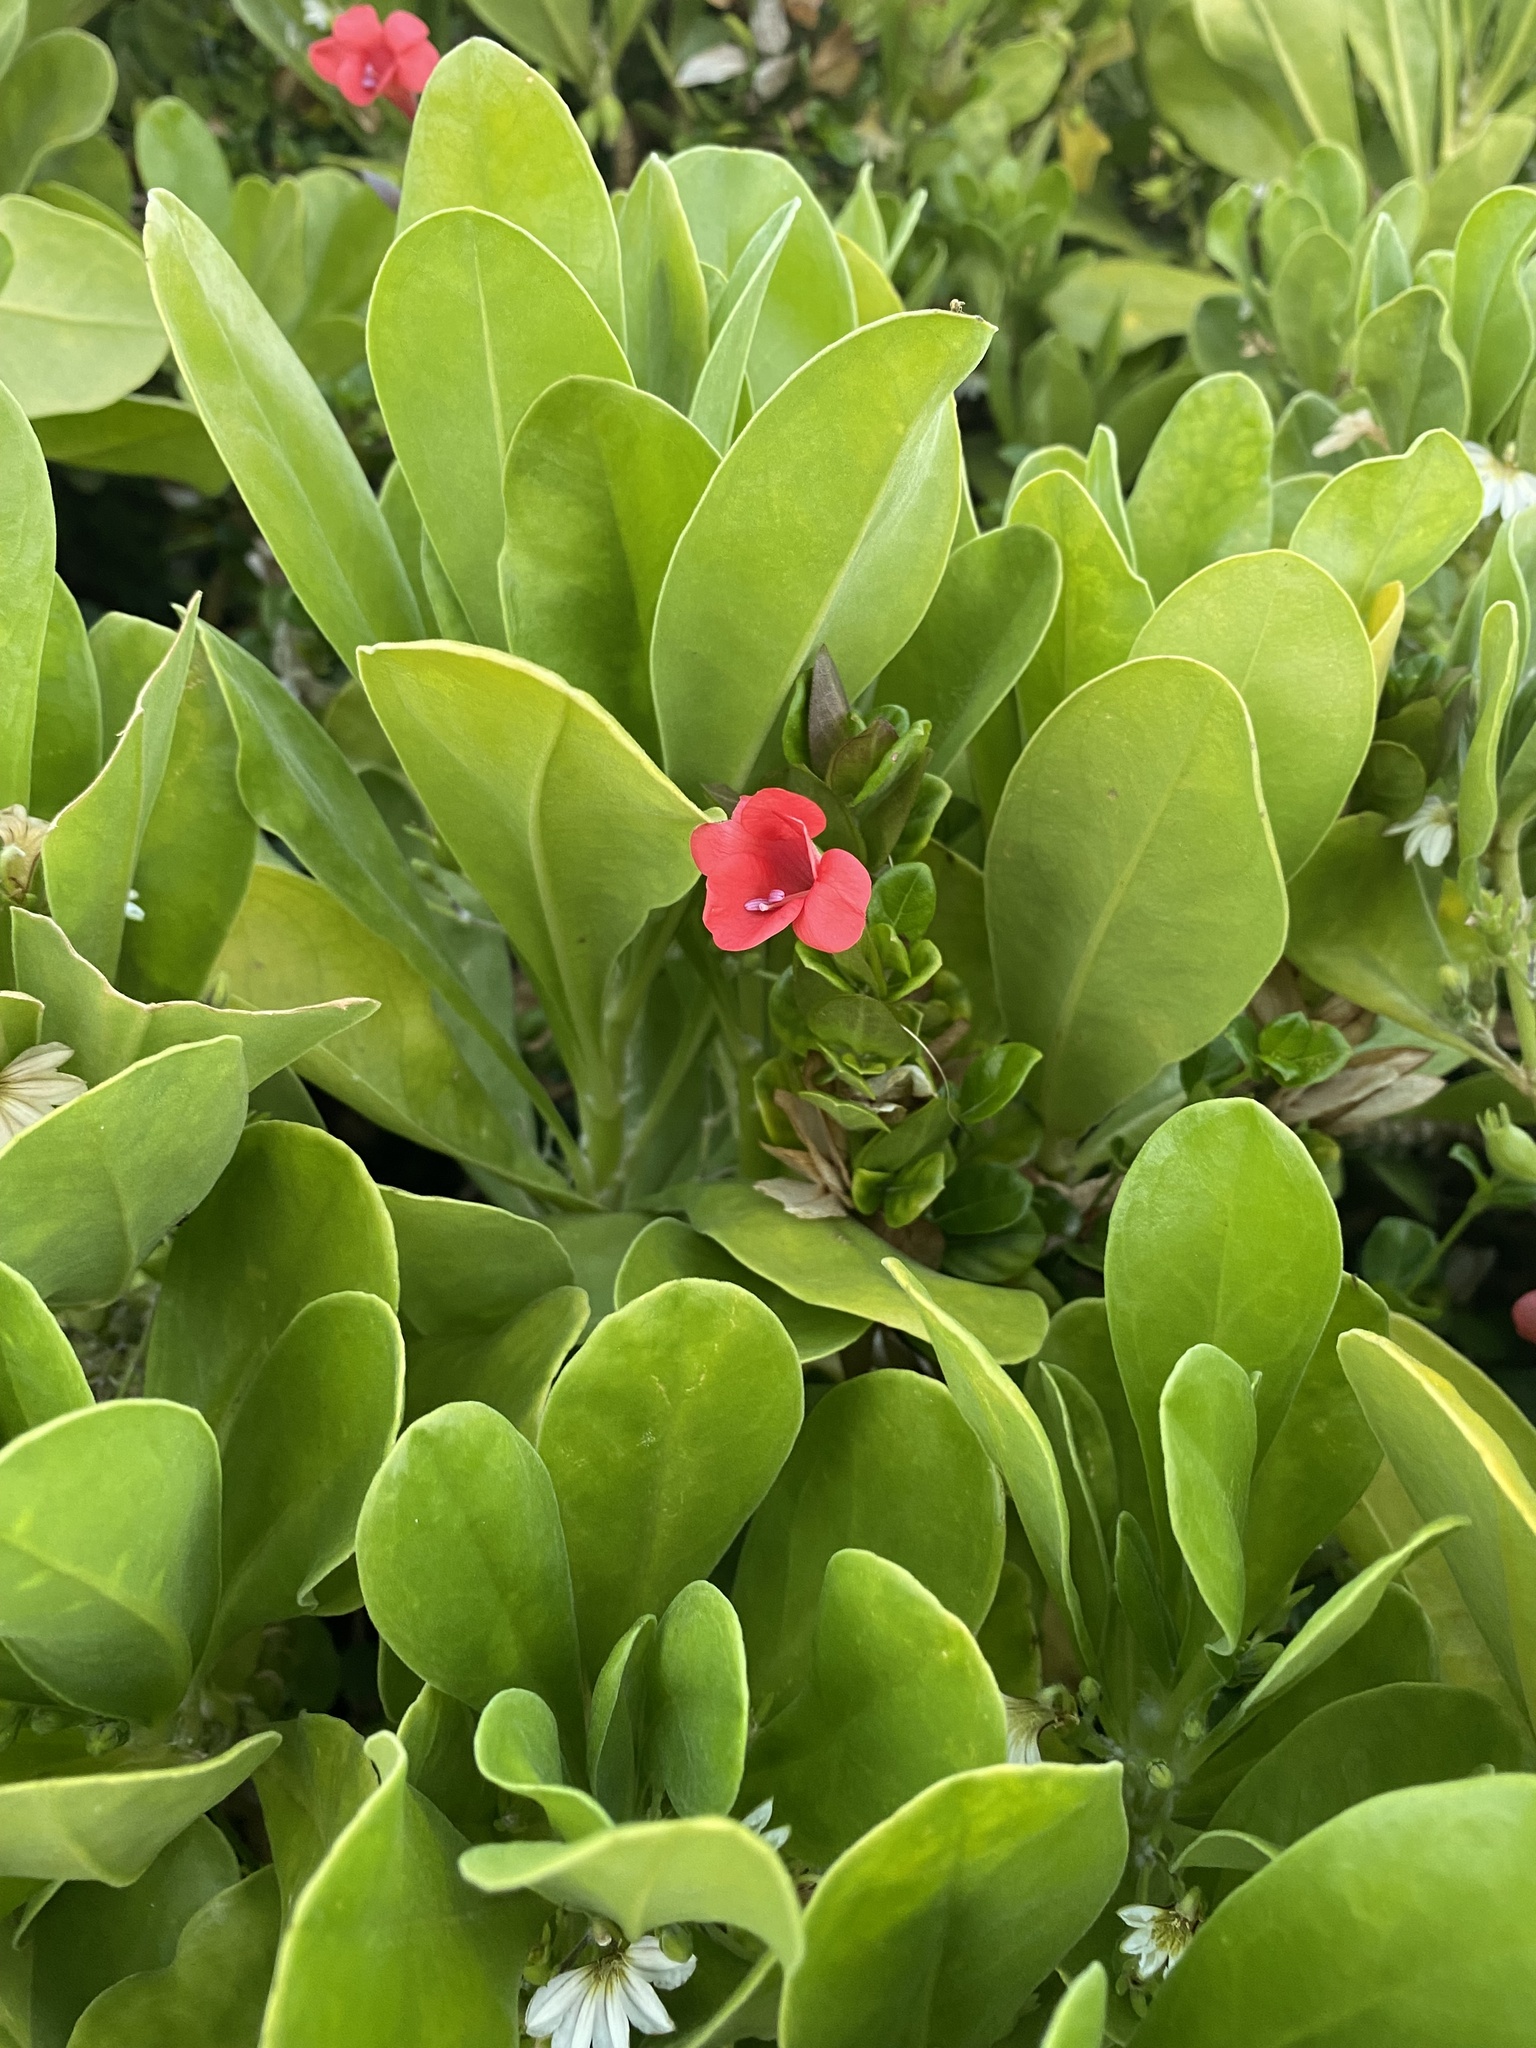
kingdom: Plantae
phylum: Tracheophyta
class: Magnoliopsida
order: Lamiales
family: Acanthaceae
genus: Barleria
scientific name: Barleria repens
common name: Pink-ruellia
